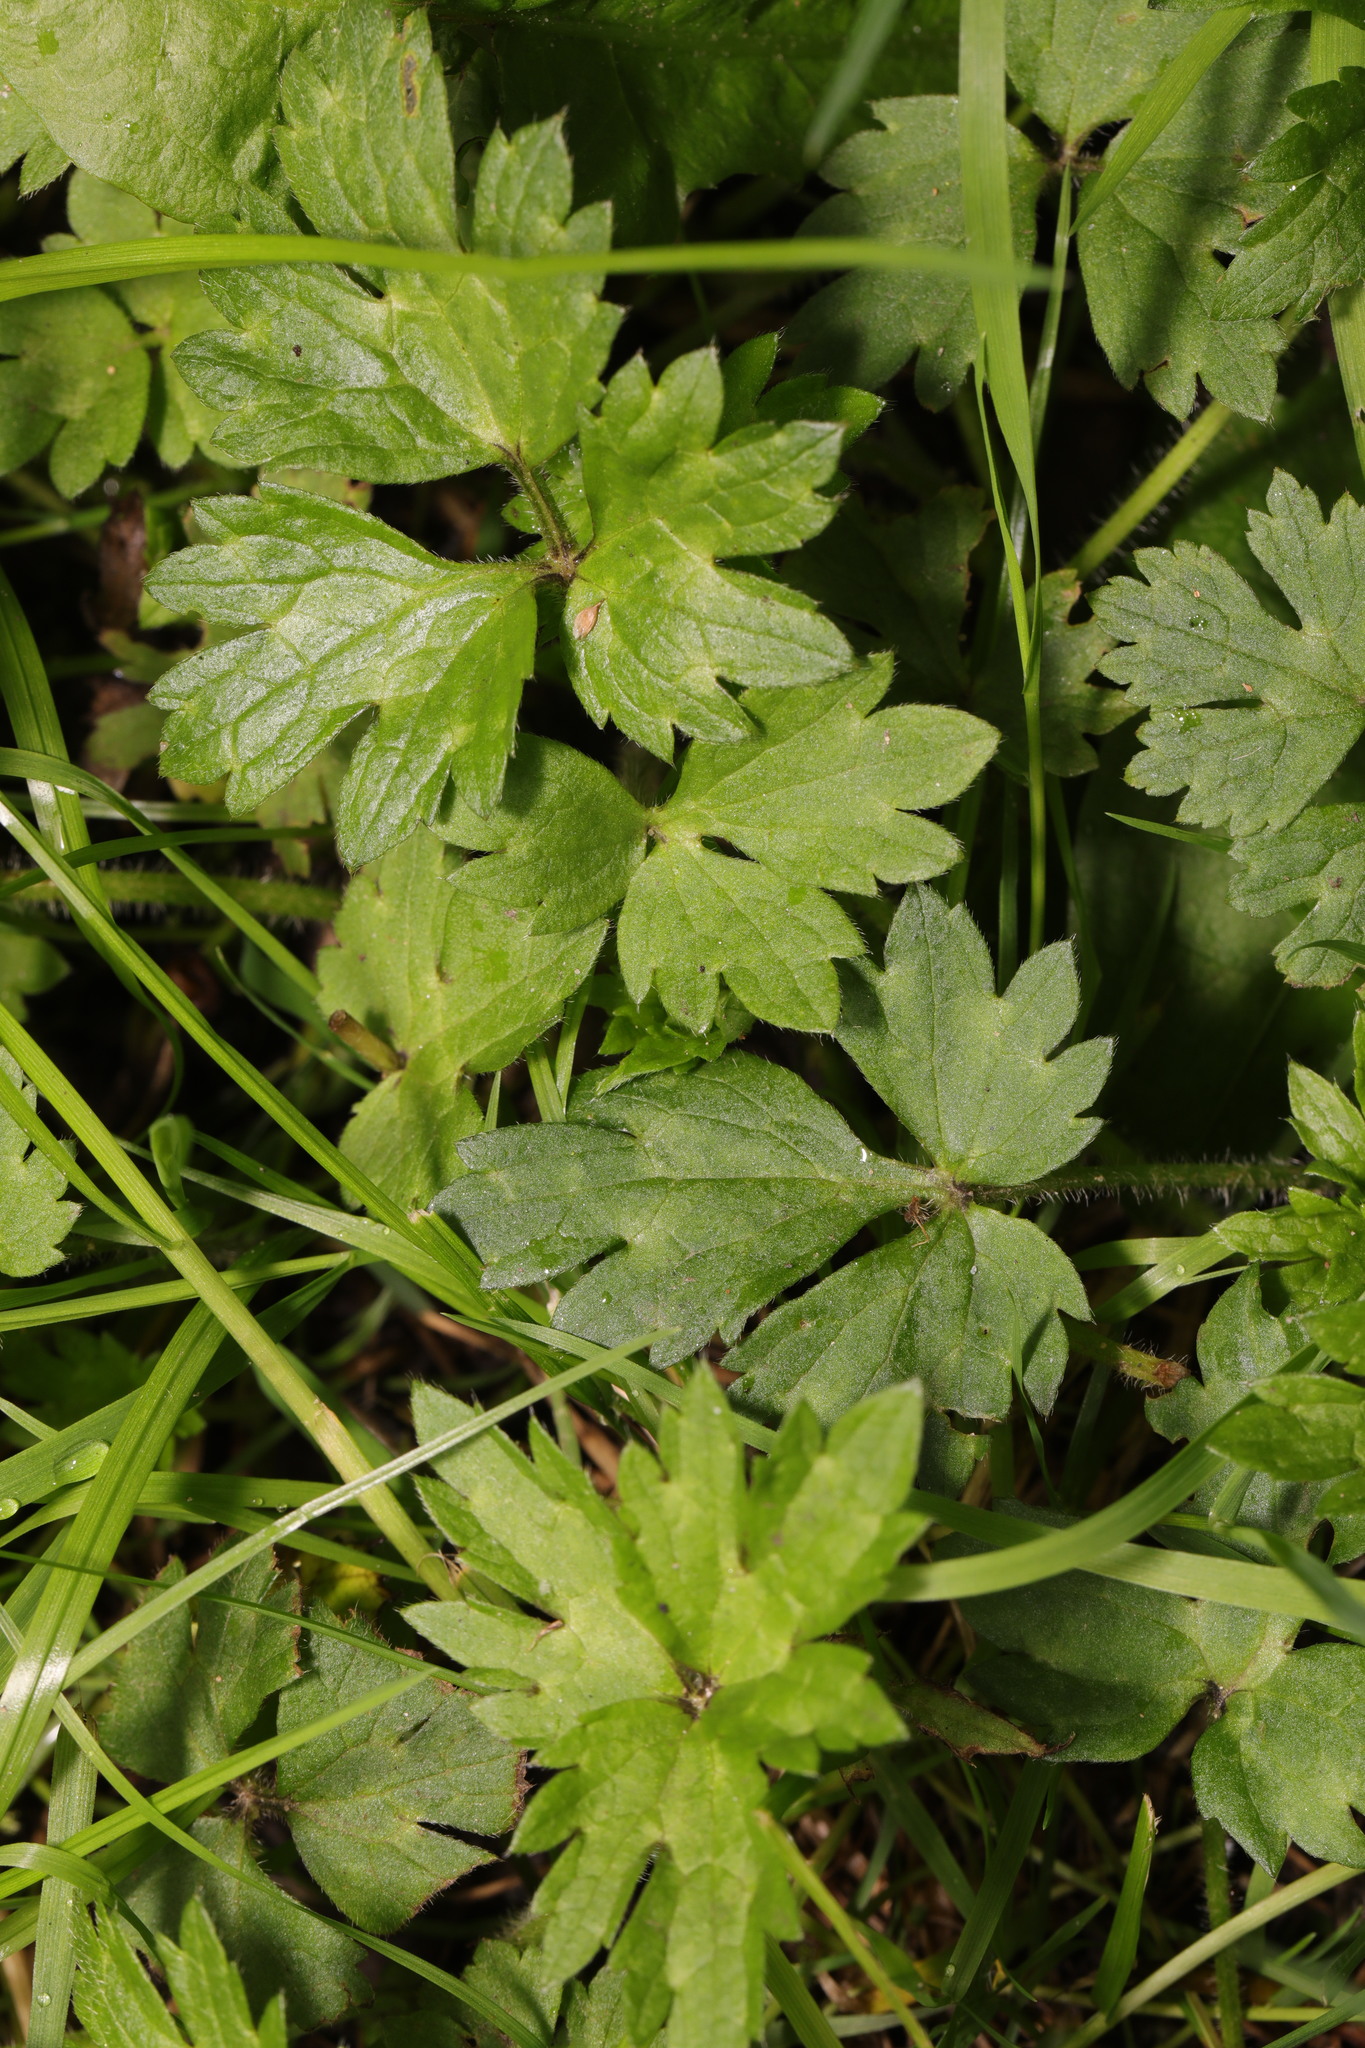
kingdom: Plantae
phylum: Tracheophyta
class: Magnoliopsida
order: Ranunculales
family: Ranunculaceae
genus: Ranunculus
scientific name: Ranunculus repens
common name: Creeping buttercup
